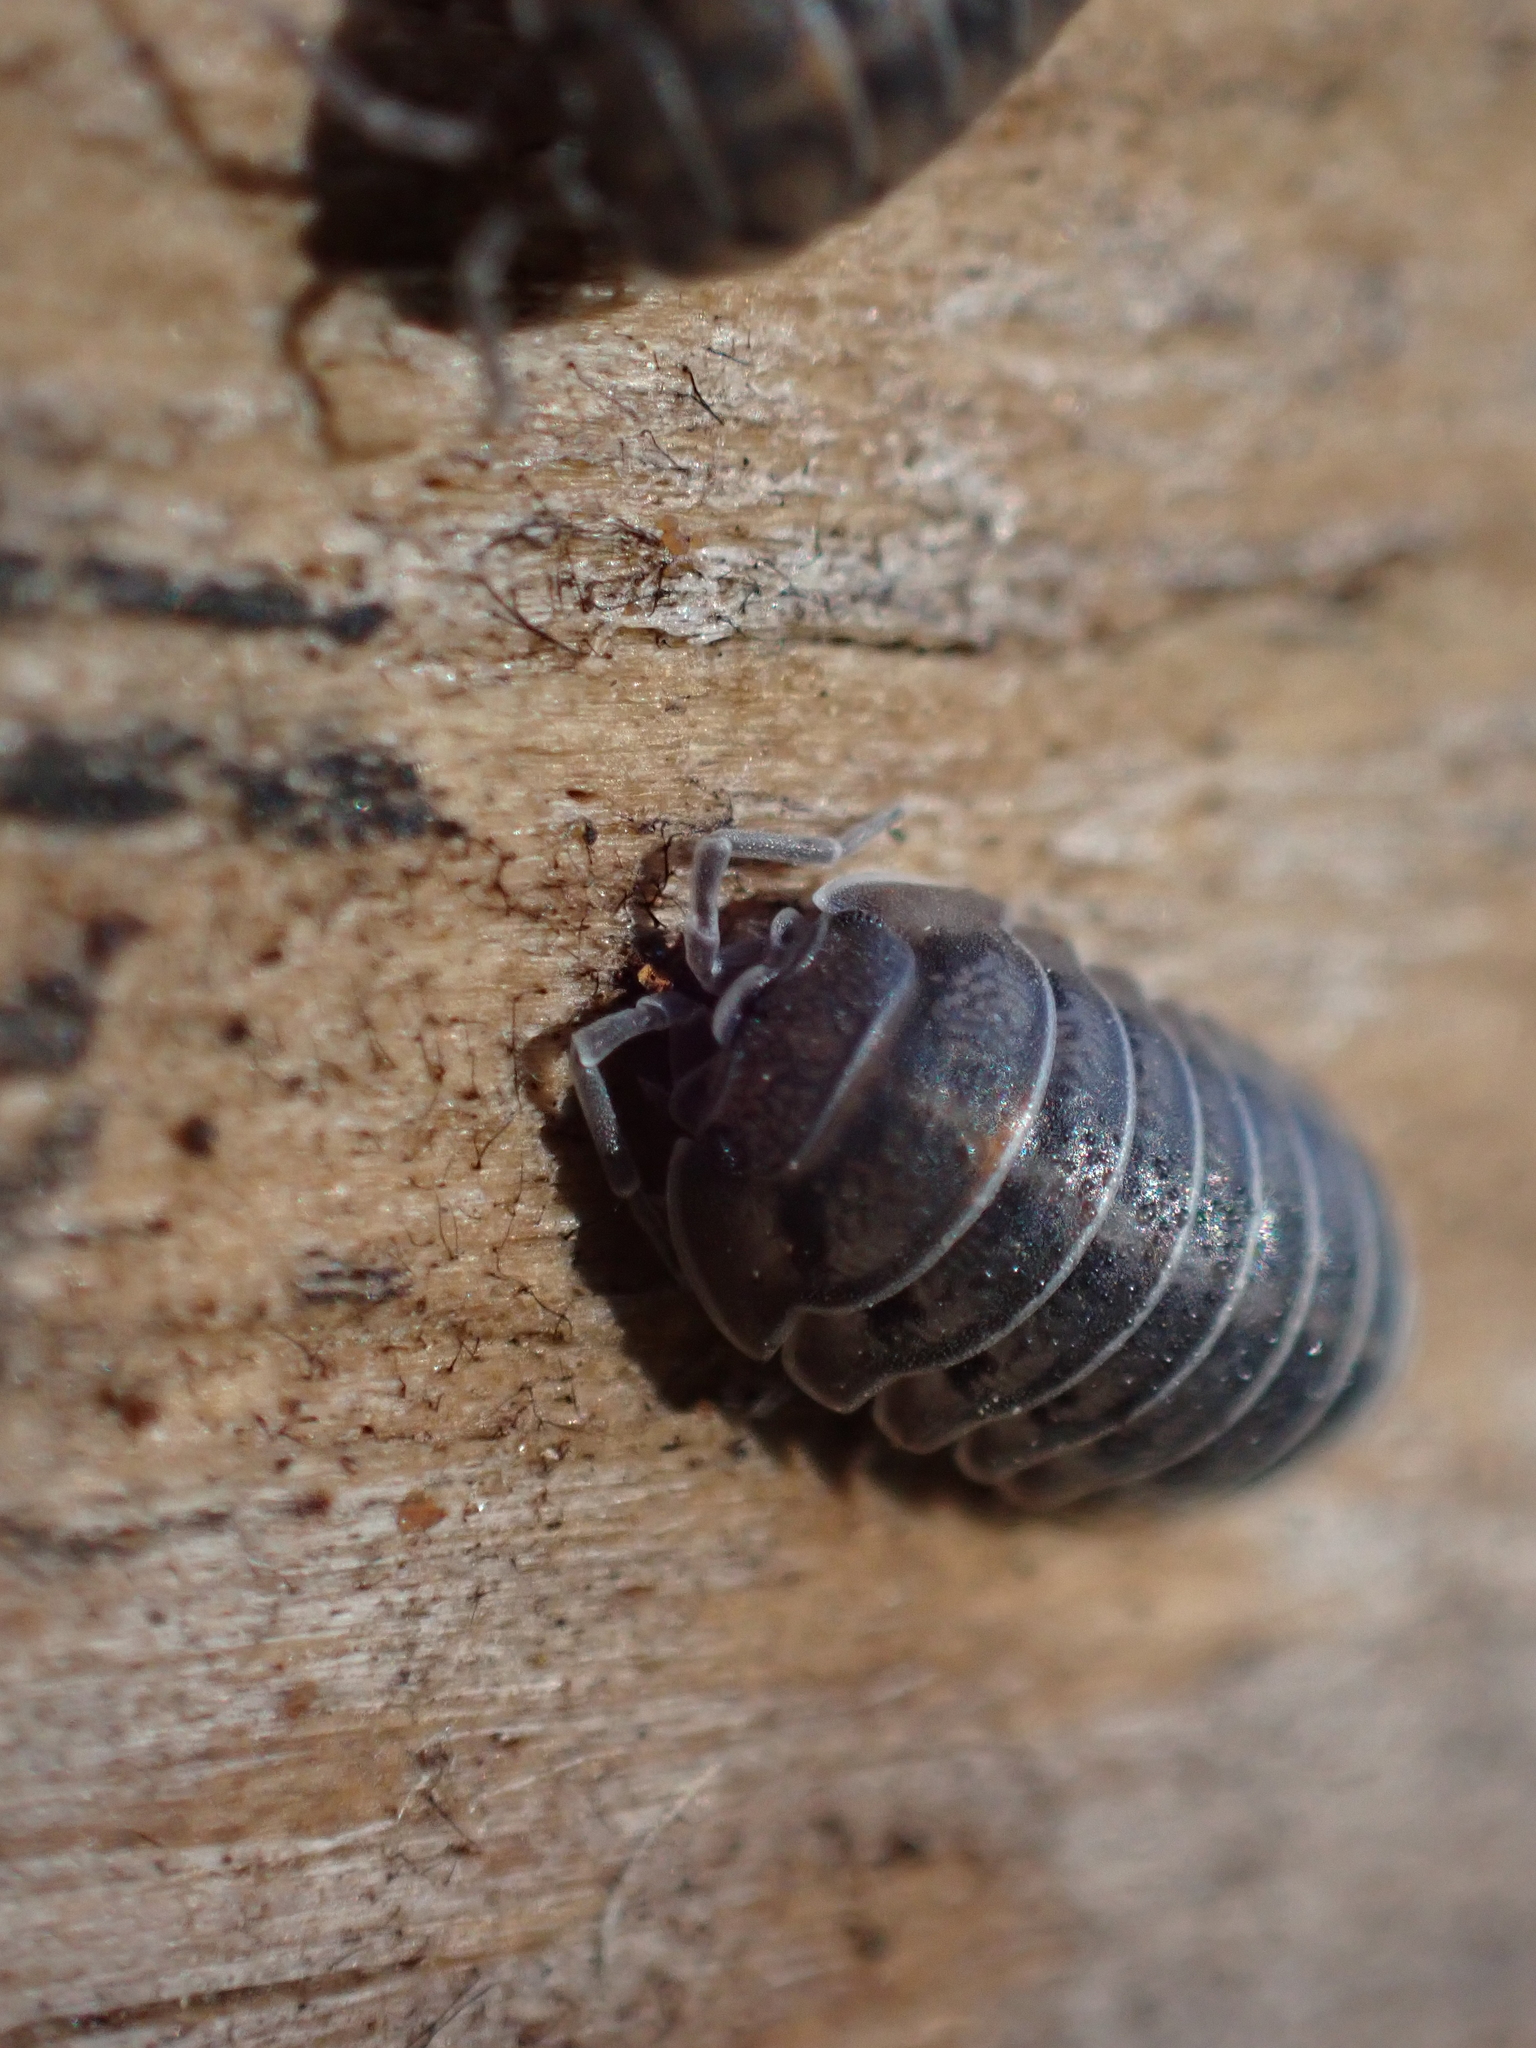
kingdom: Animalia
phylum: Arthropoda
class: Malacostraca
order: Isopoda
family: Armadillidiidae
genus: Armadillidium
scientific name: Armadillidium nasatum
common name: Isopod
